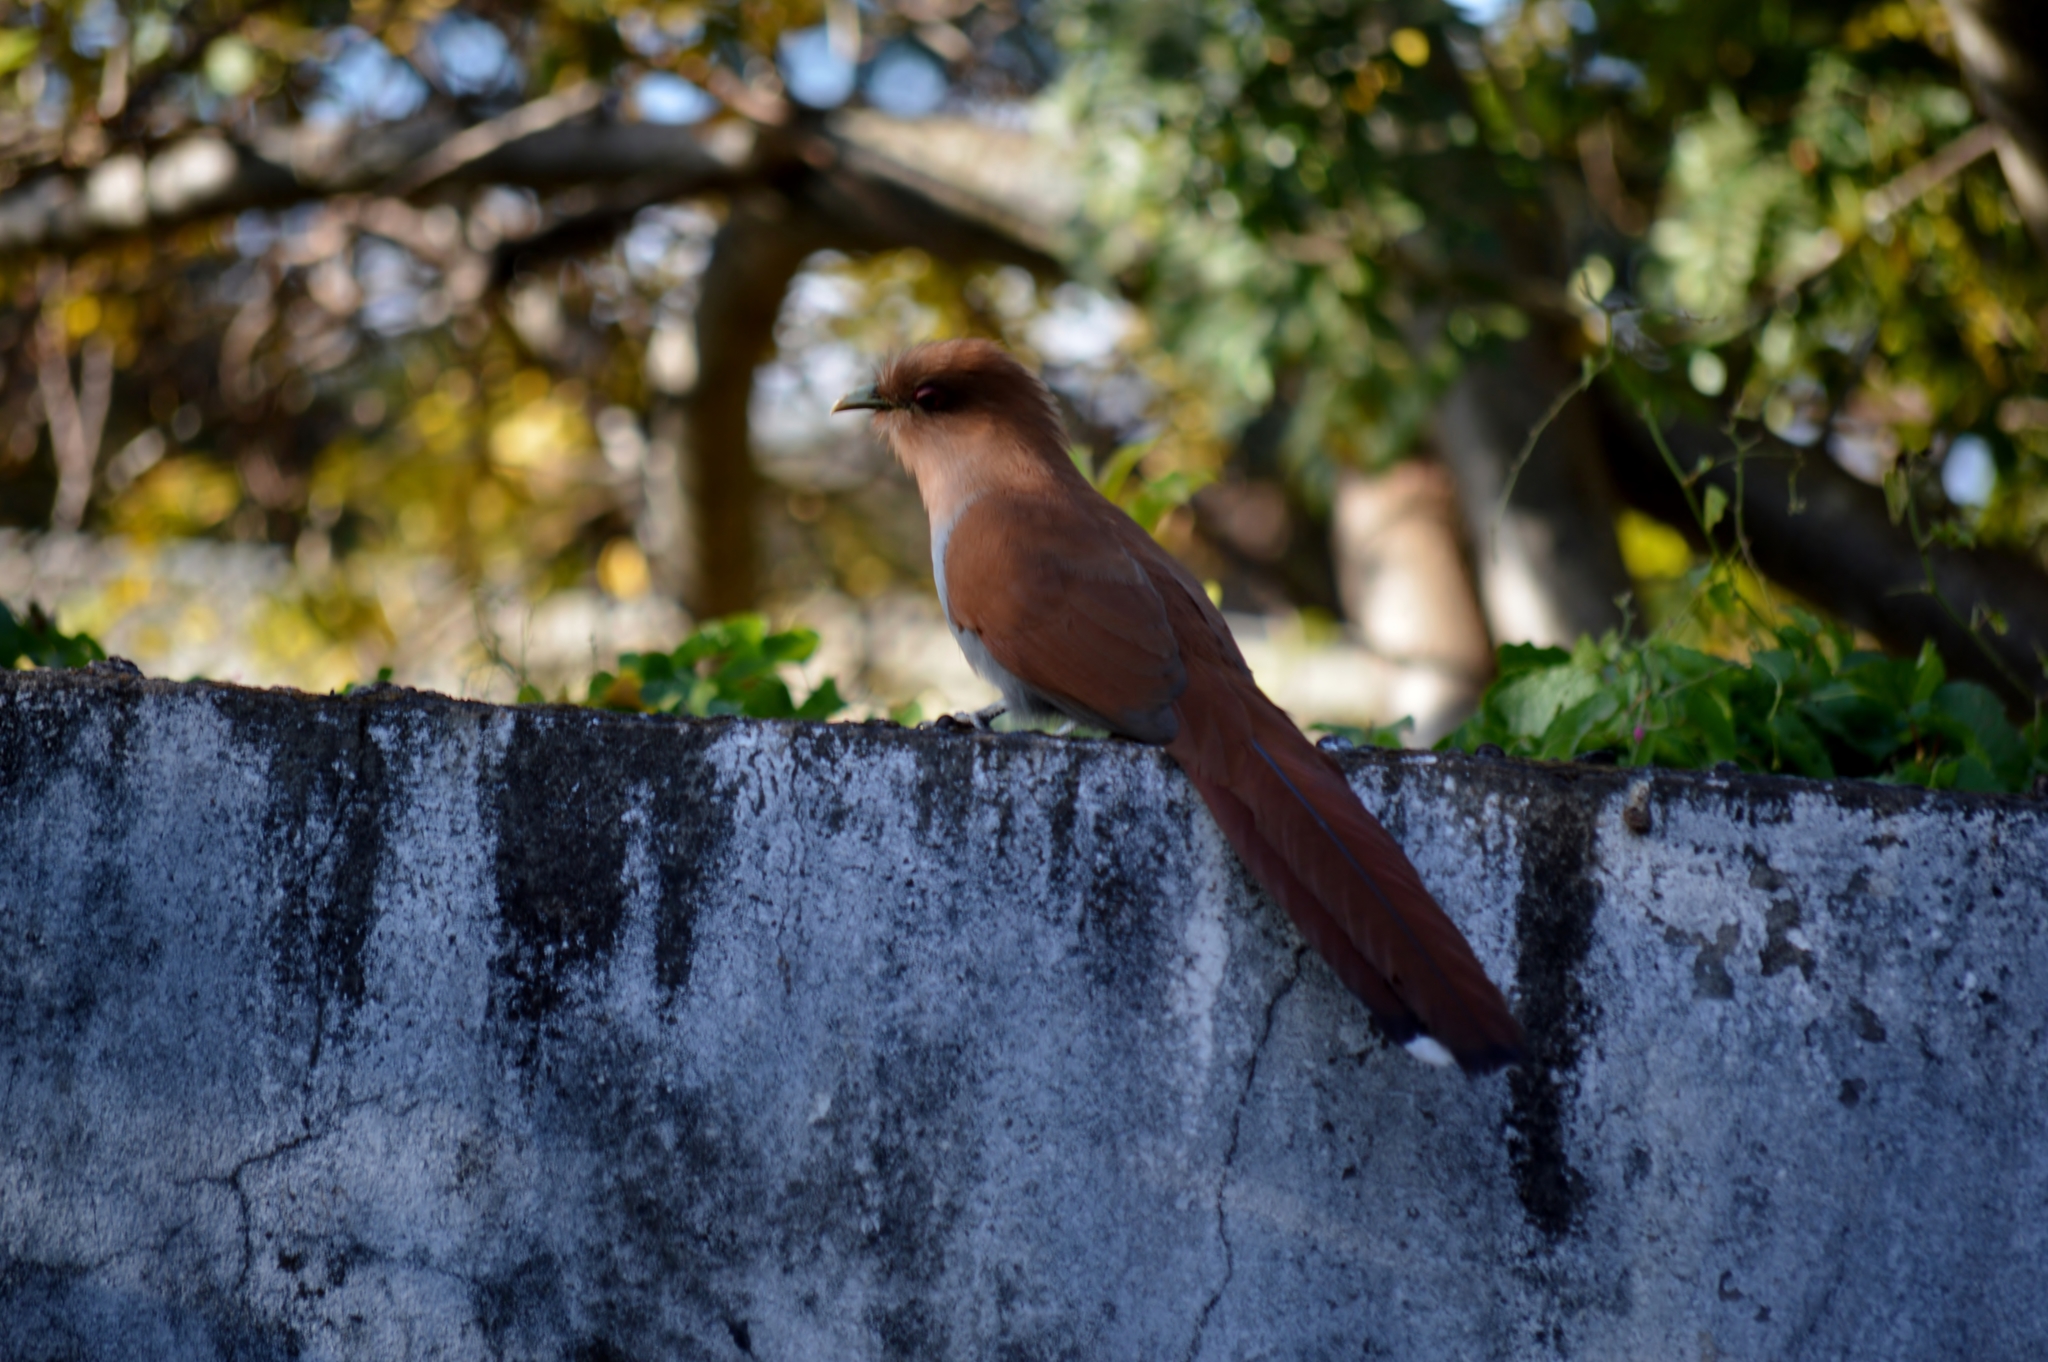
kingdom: Animalia
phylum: Chordata
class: Aves
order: Cuculiformes
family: Cuculidae
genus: Piaya
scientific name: Piaya cayana
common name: Squirrel cuckoo
